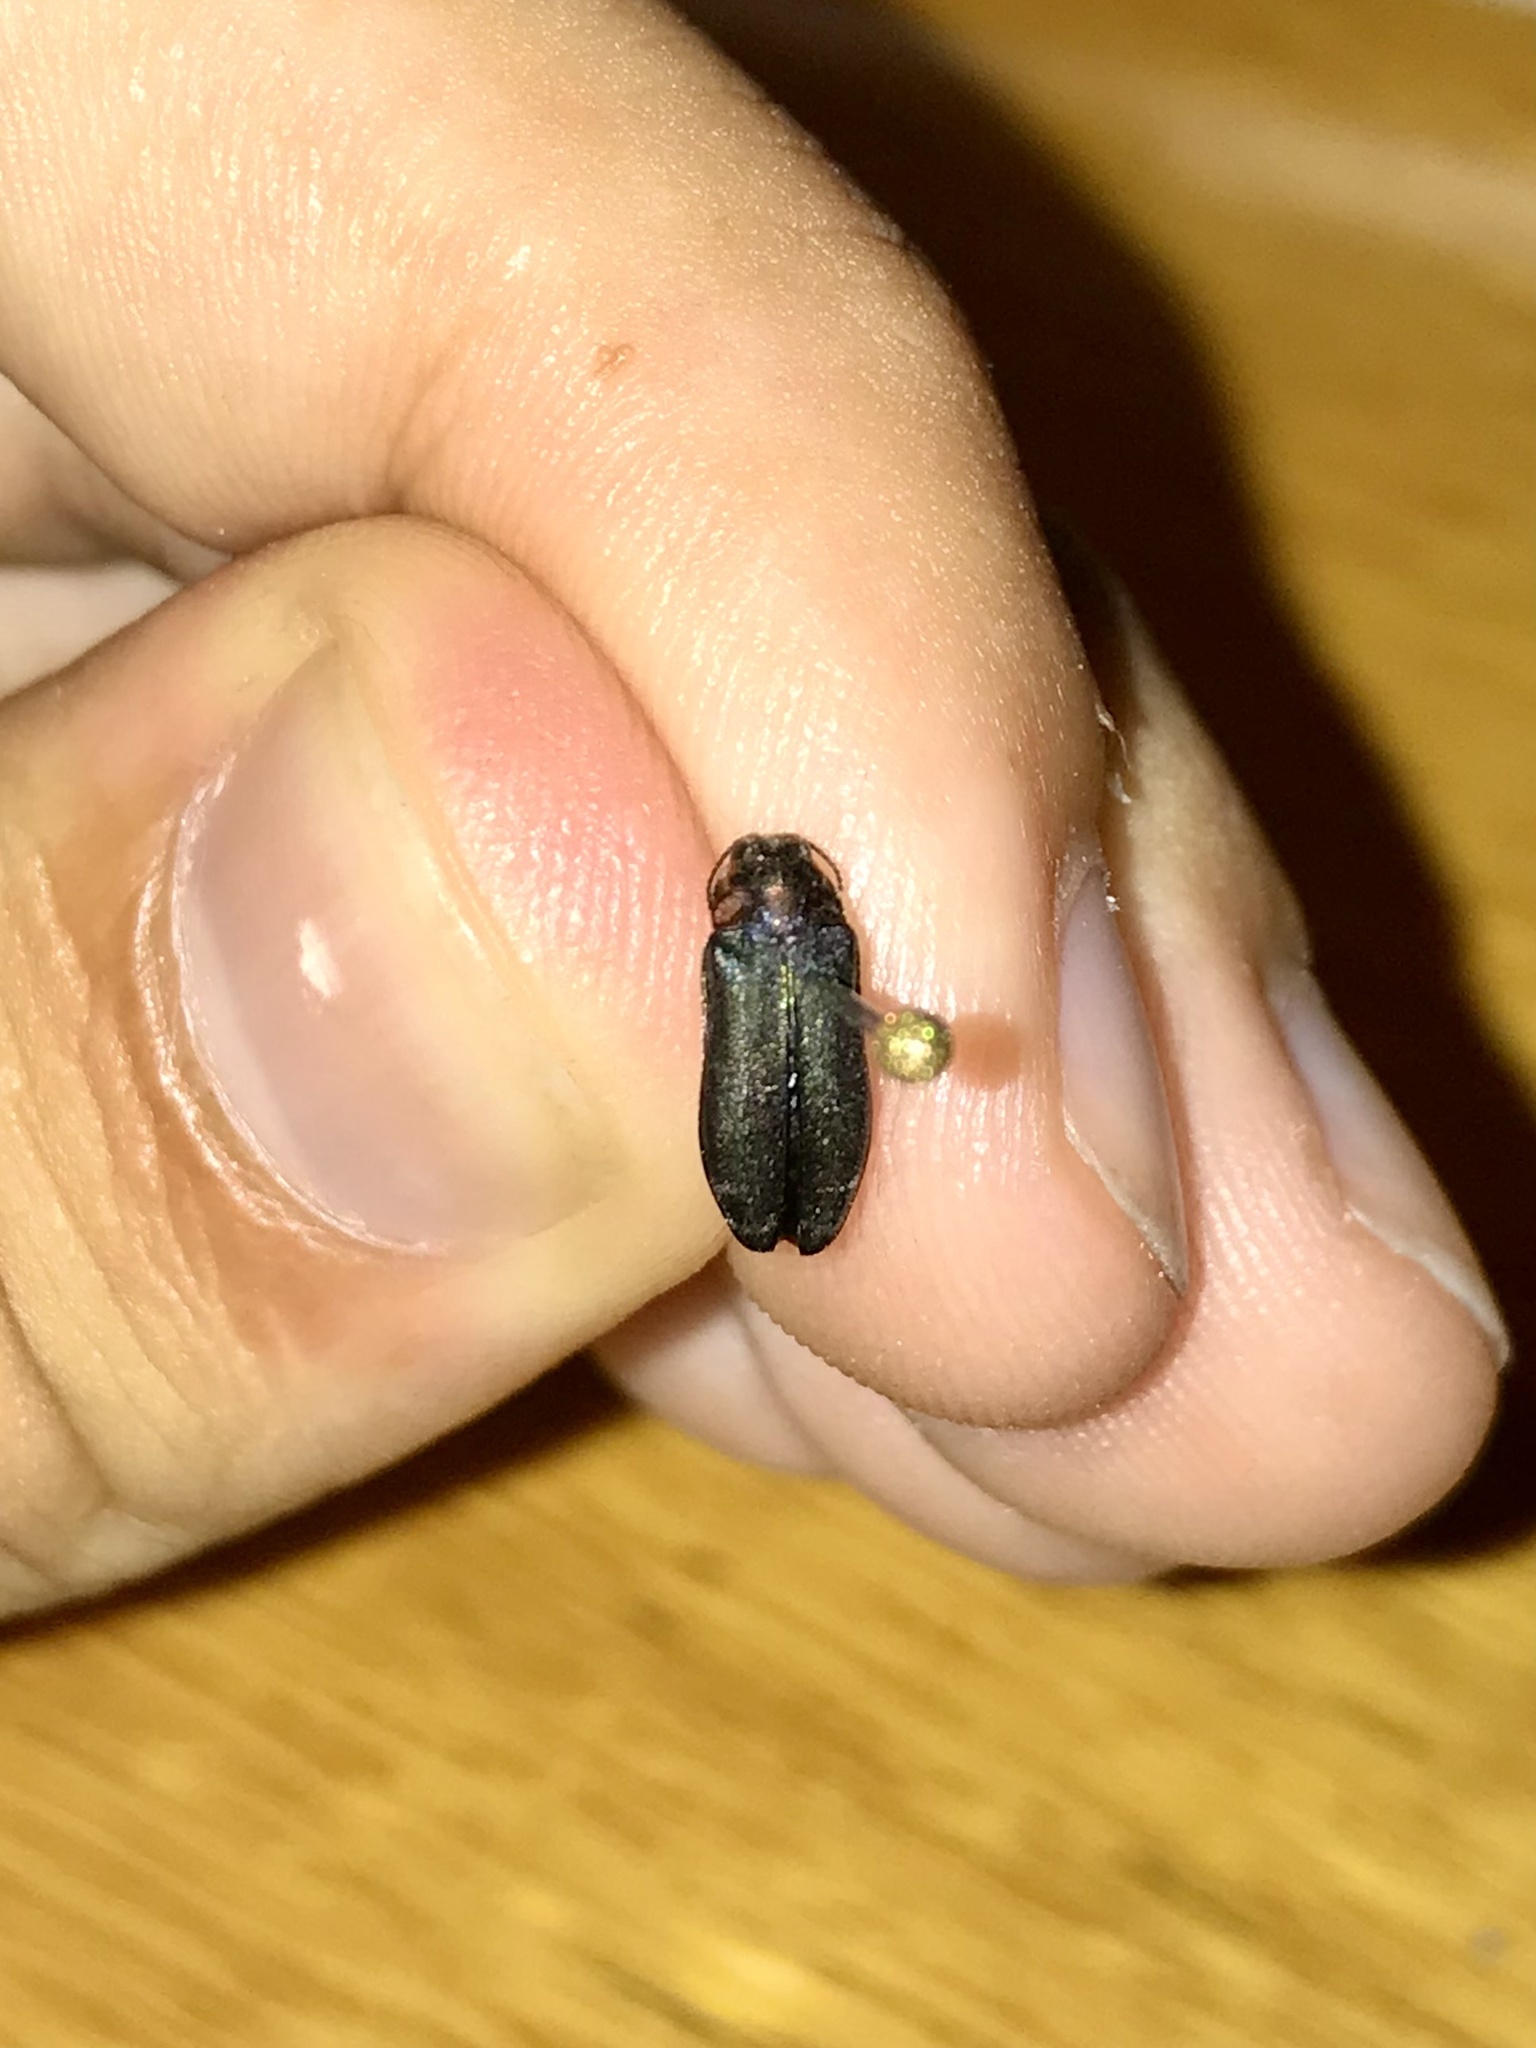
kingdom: Animalia
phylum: Arthropoda
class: Insecta
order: Coleoptera
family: Buprestidae
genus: Eupristocerus
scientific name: Eupristocerus cogitans
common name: Alder gall buprestid
